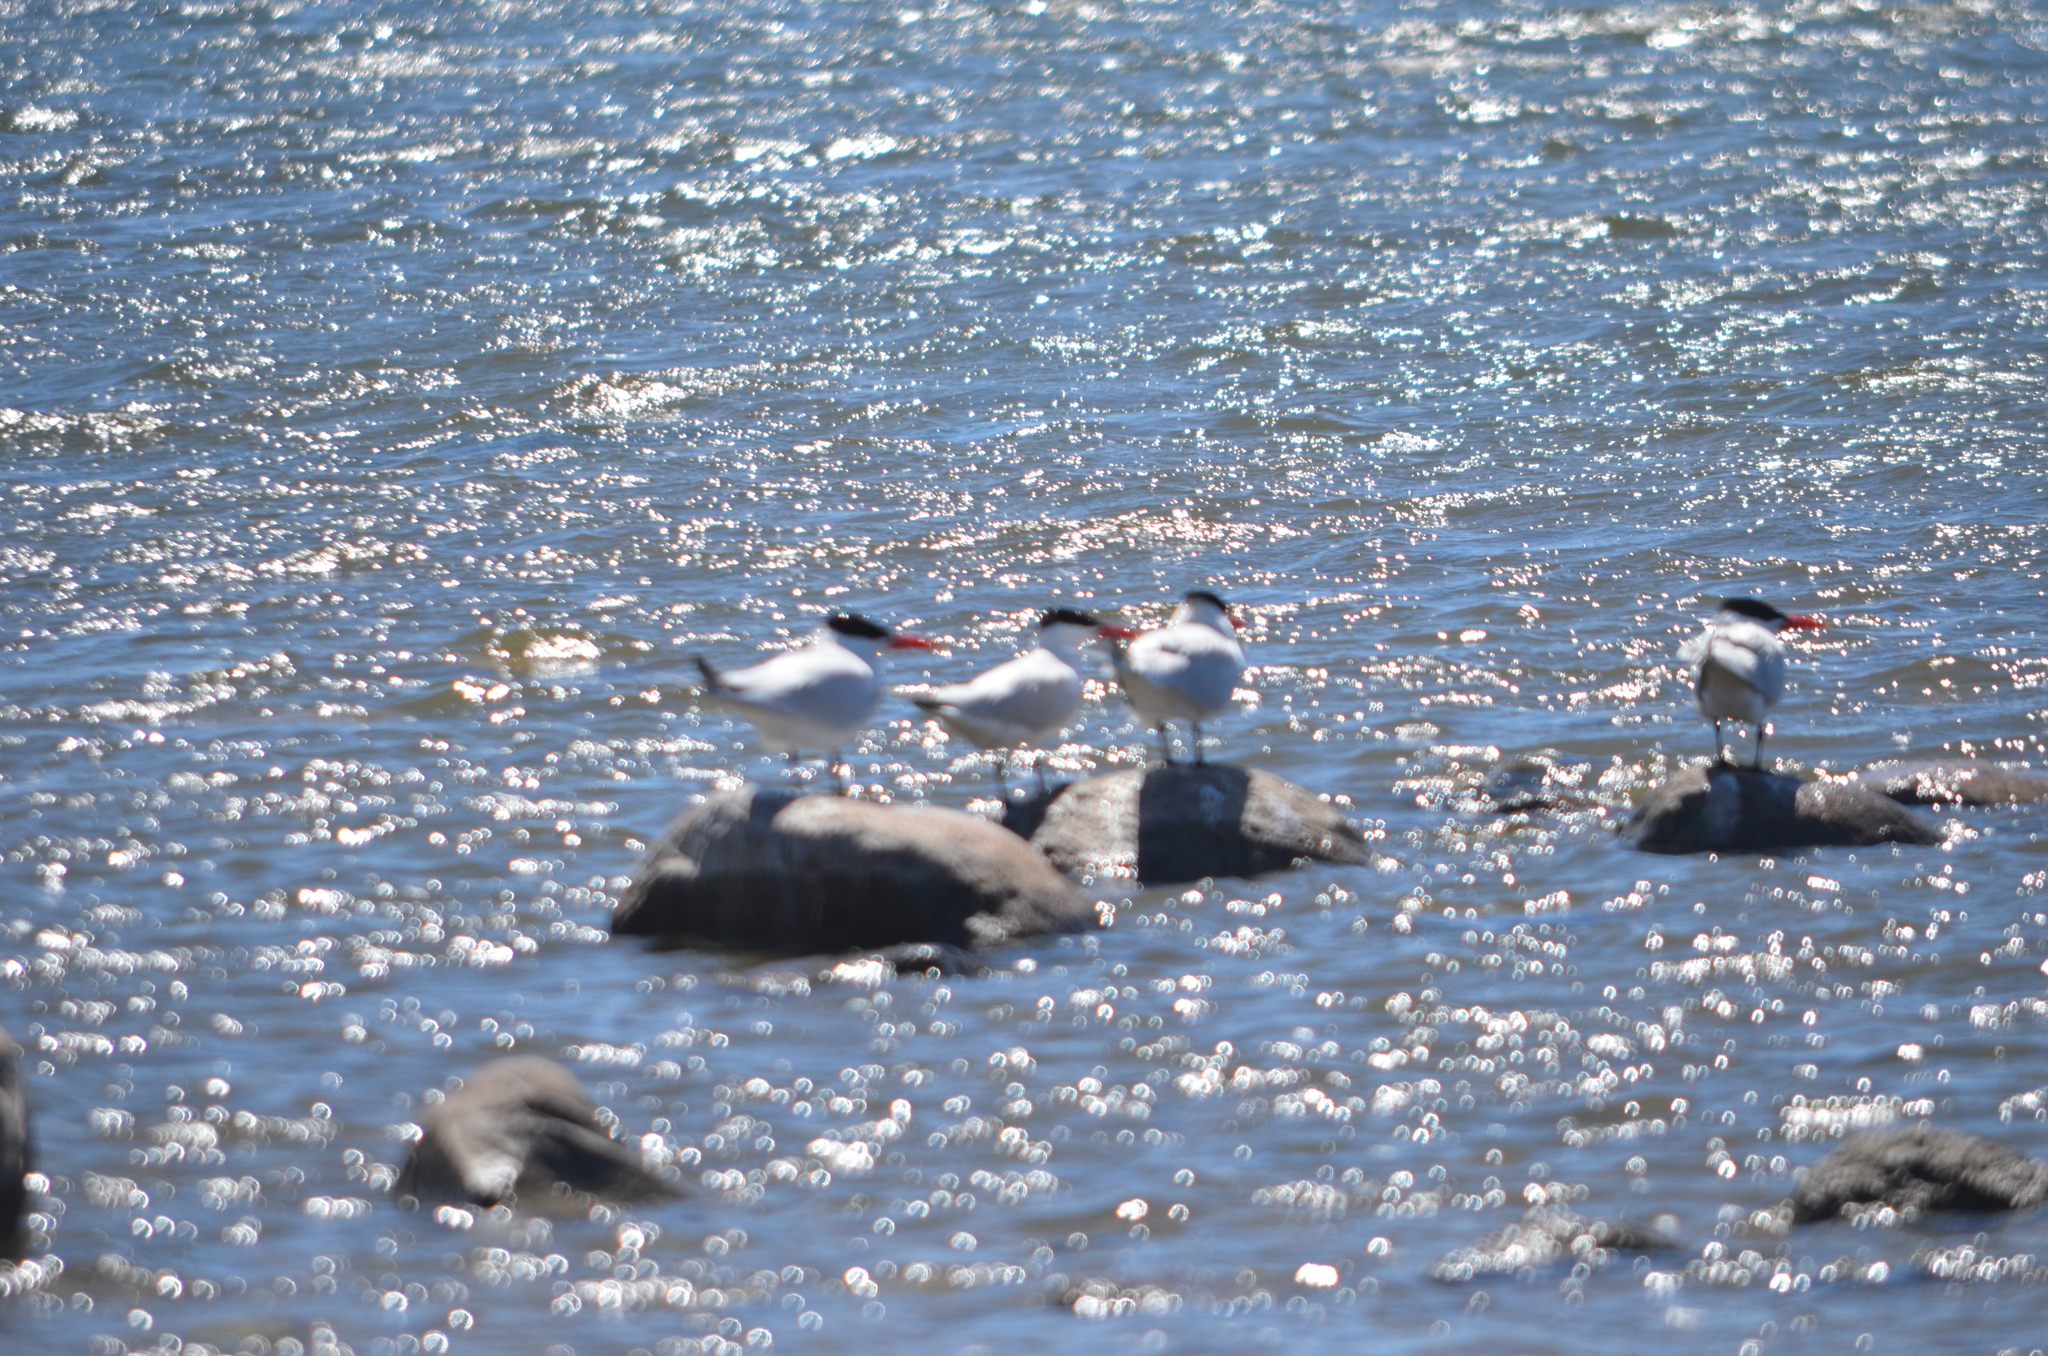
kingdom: Animalia
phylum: Chordata
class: Aves
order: Charadriiformes
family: Laridae
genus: Hydroprogne
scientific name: Hydroprogne caspia
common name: Caspian tern
